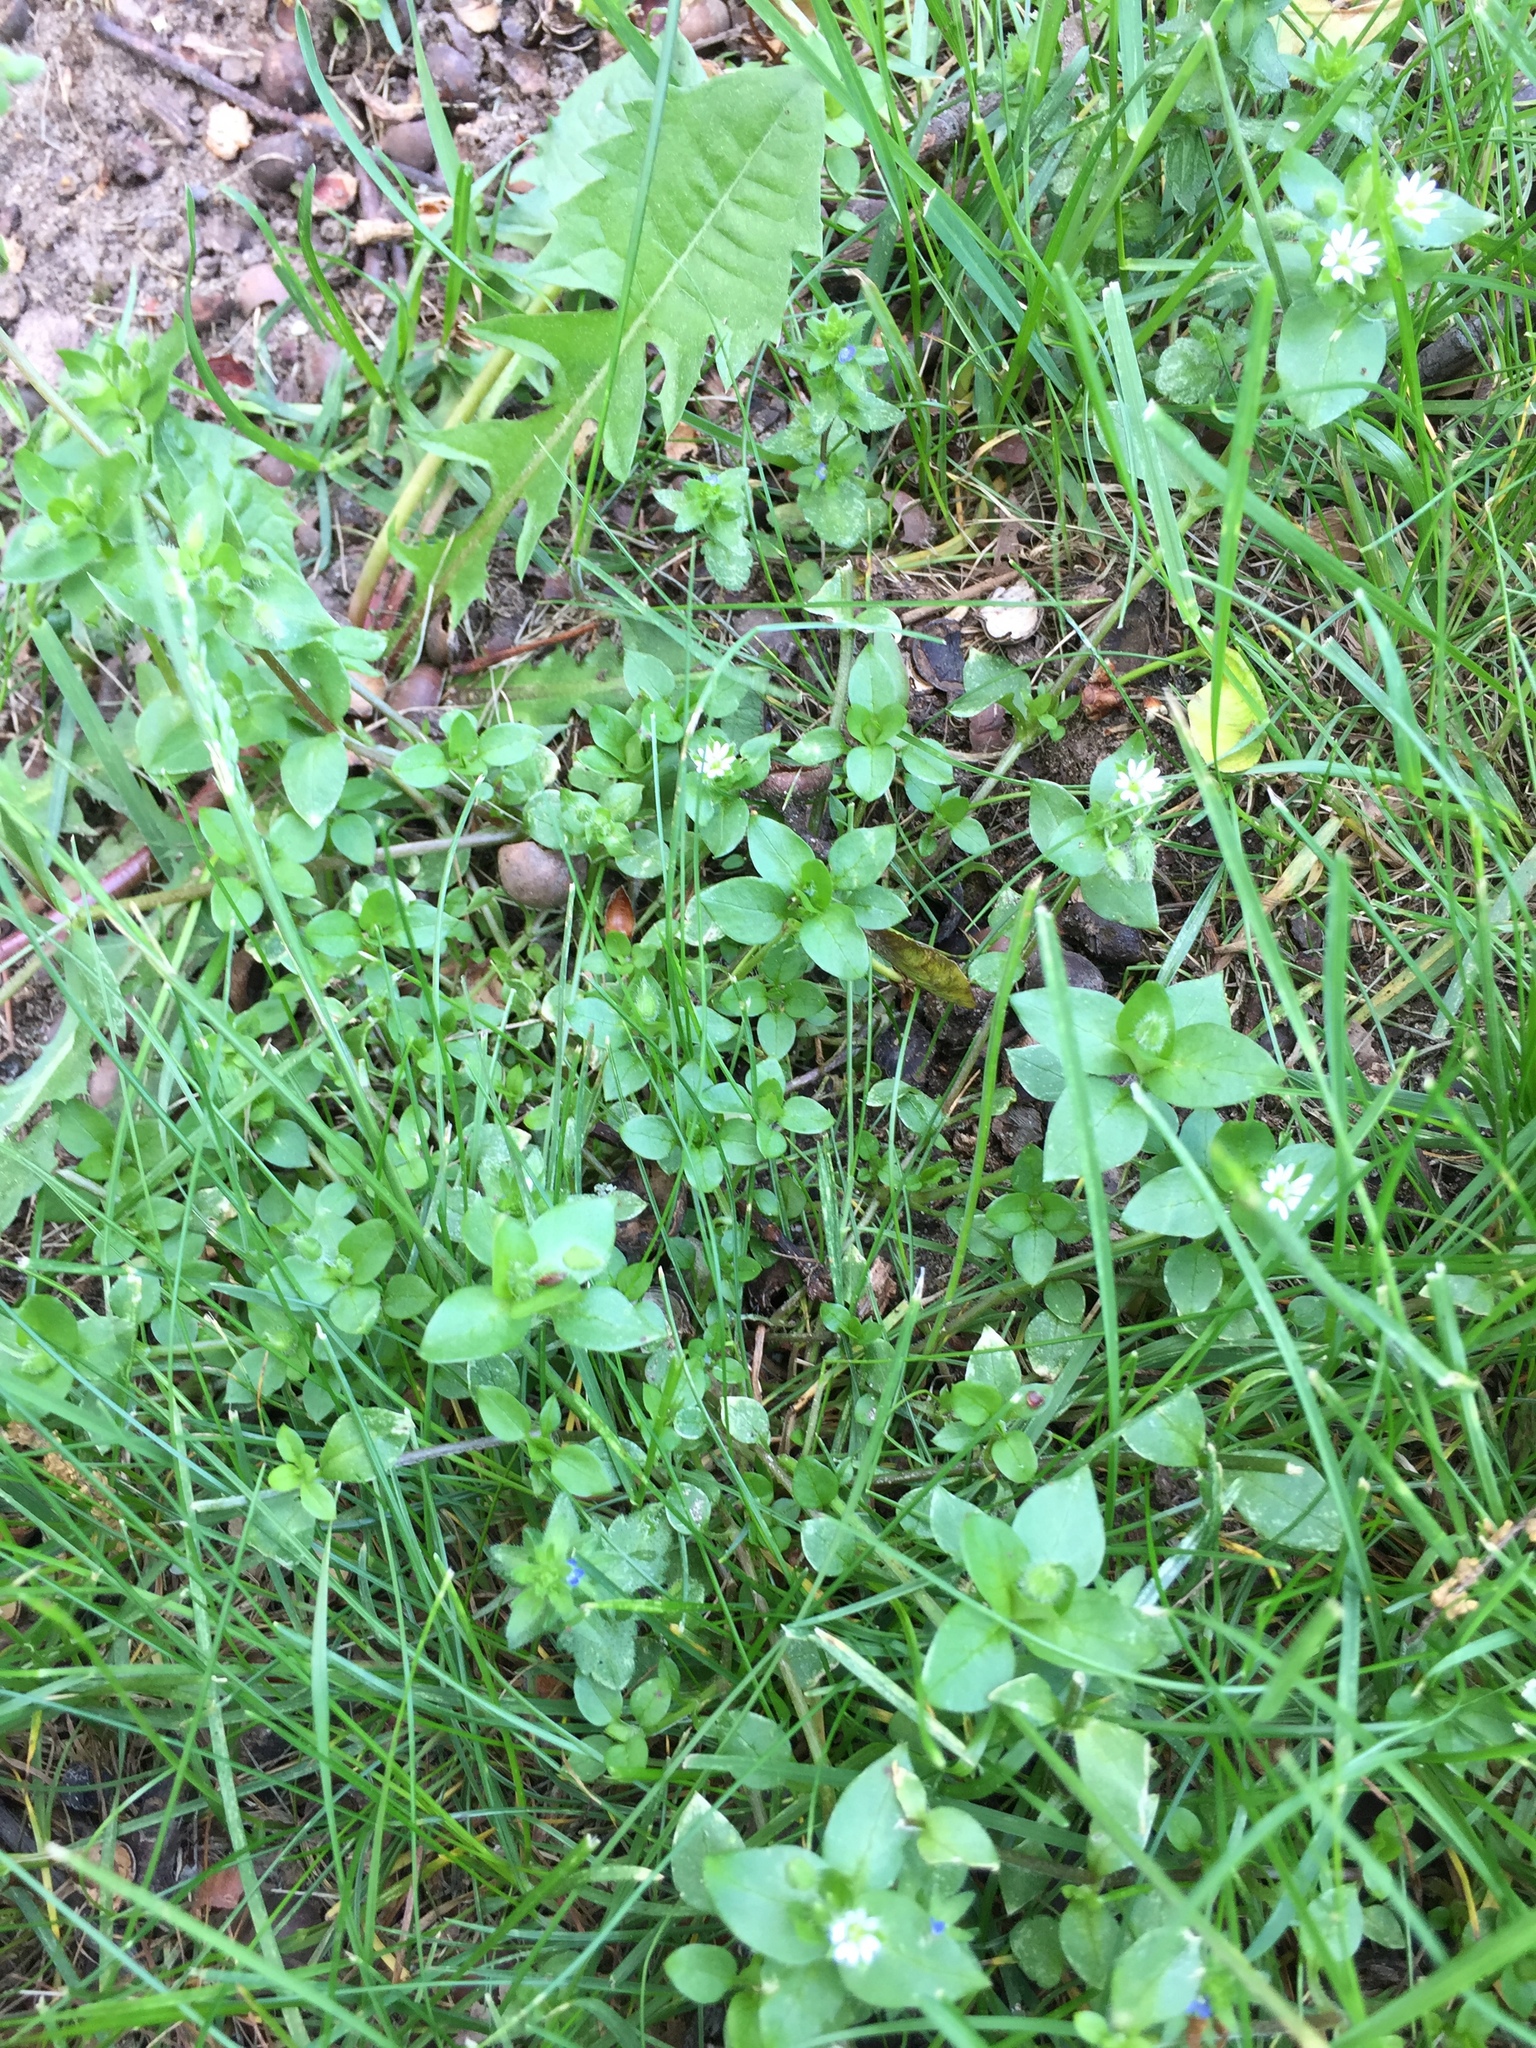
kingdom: Plantae
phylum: Tracheophyta
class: Magnoliopsida
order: Caryophyllales
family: Caryophyllaceae
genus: Stellaria
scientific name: Stellaria media
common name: Common chickweed
